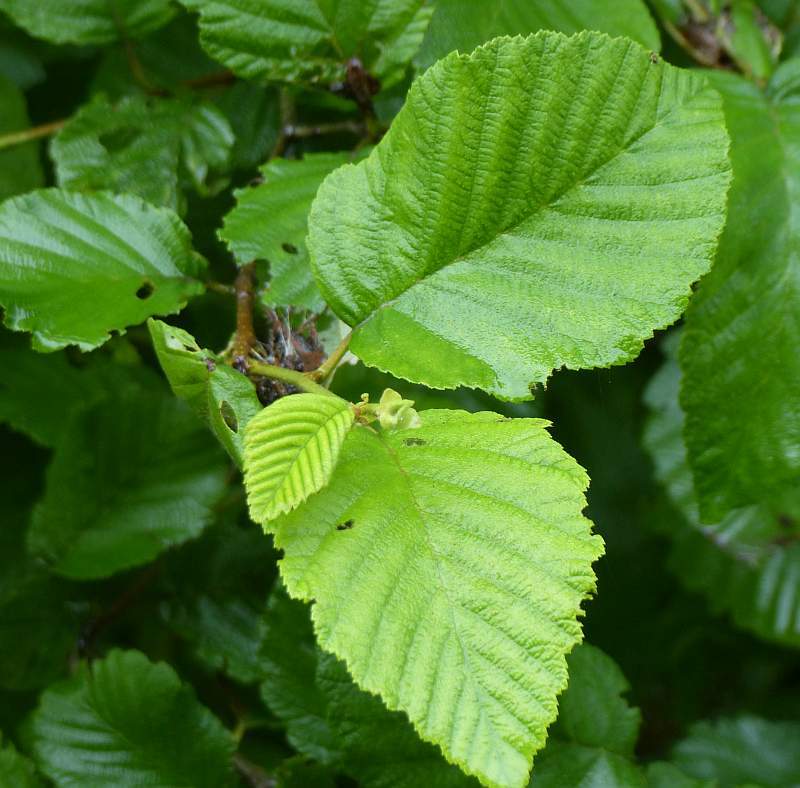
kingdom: Plantae
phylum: Tracheophyta
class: Magnoliopsida
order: Fagales
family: Betulaceae
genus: Alnus
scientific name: Alnus incana
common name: Grey alder
